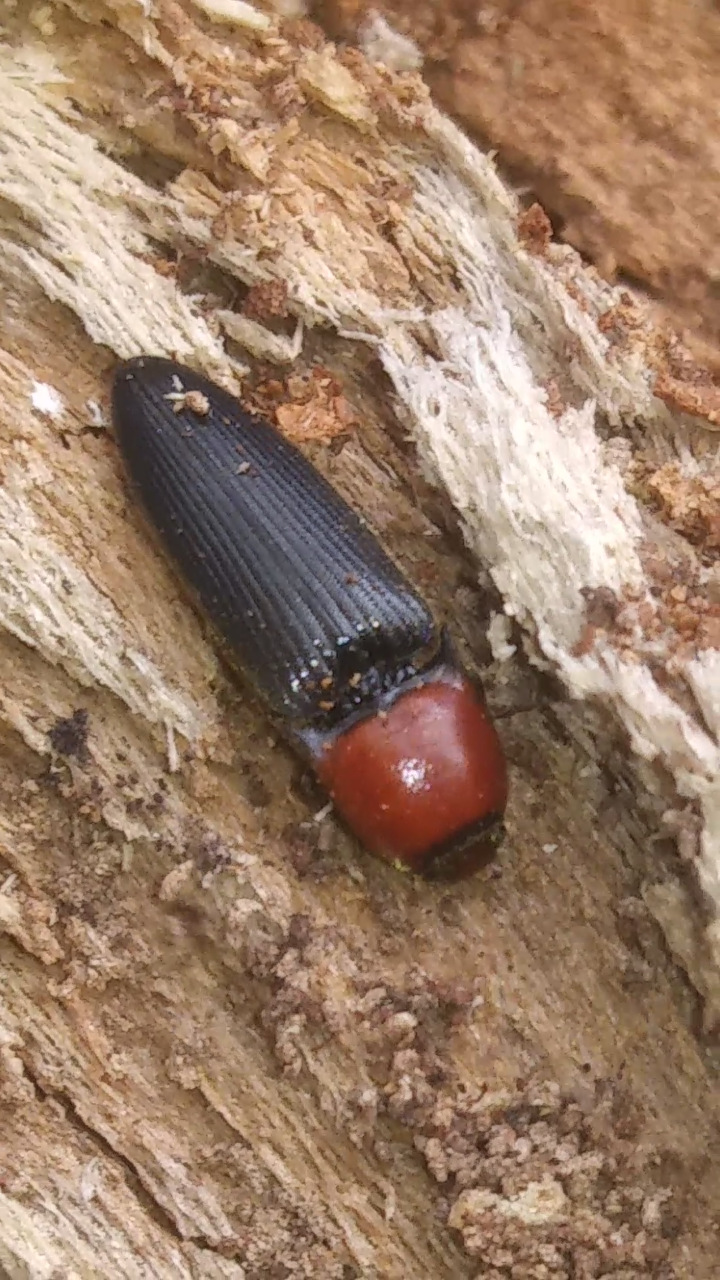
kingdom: Animalia
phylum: Arthropoda
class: Insecta
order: Coleoptera
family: Elateridae
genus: Ampedus
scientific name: Ampedus rubricollis
